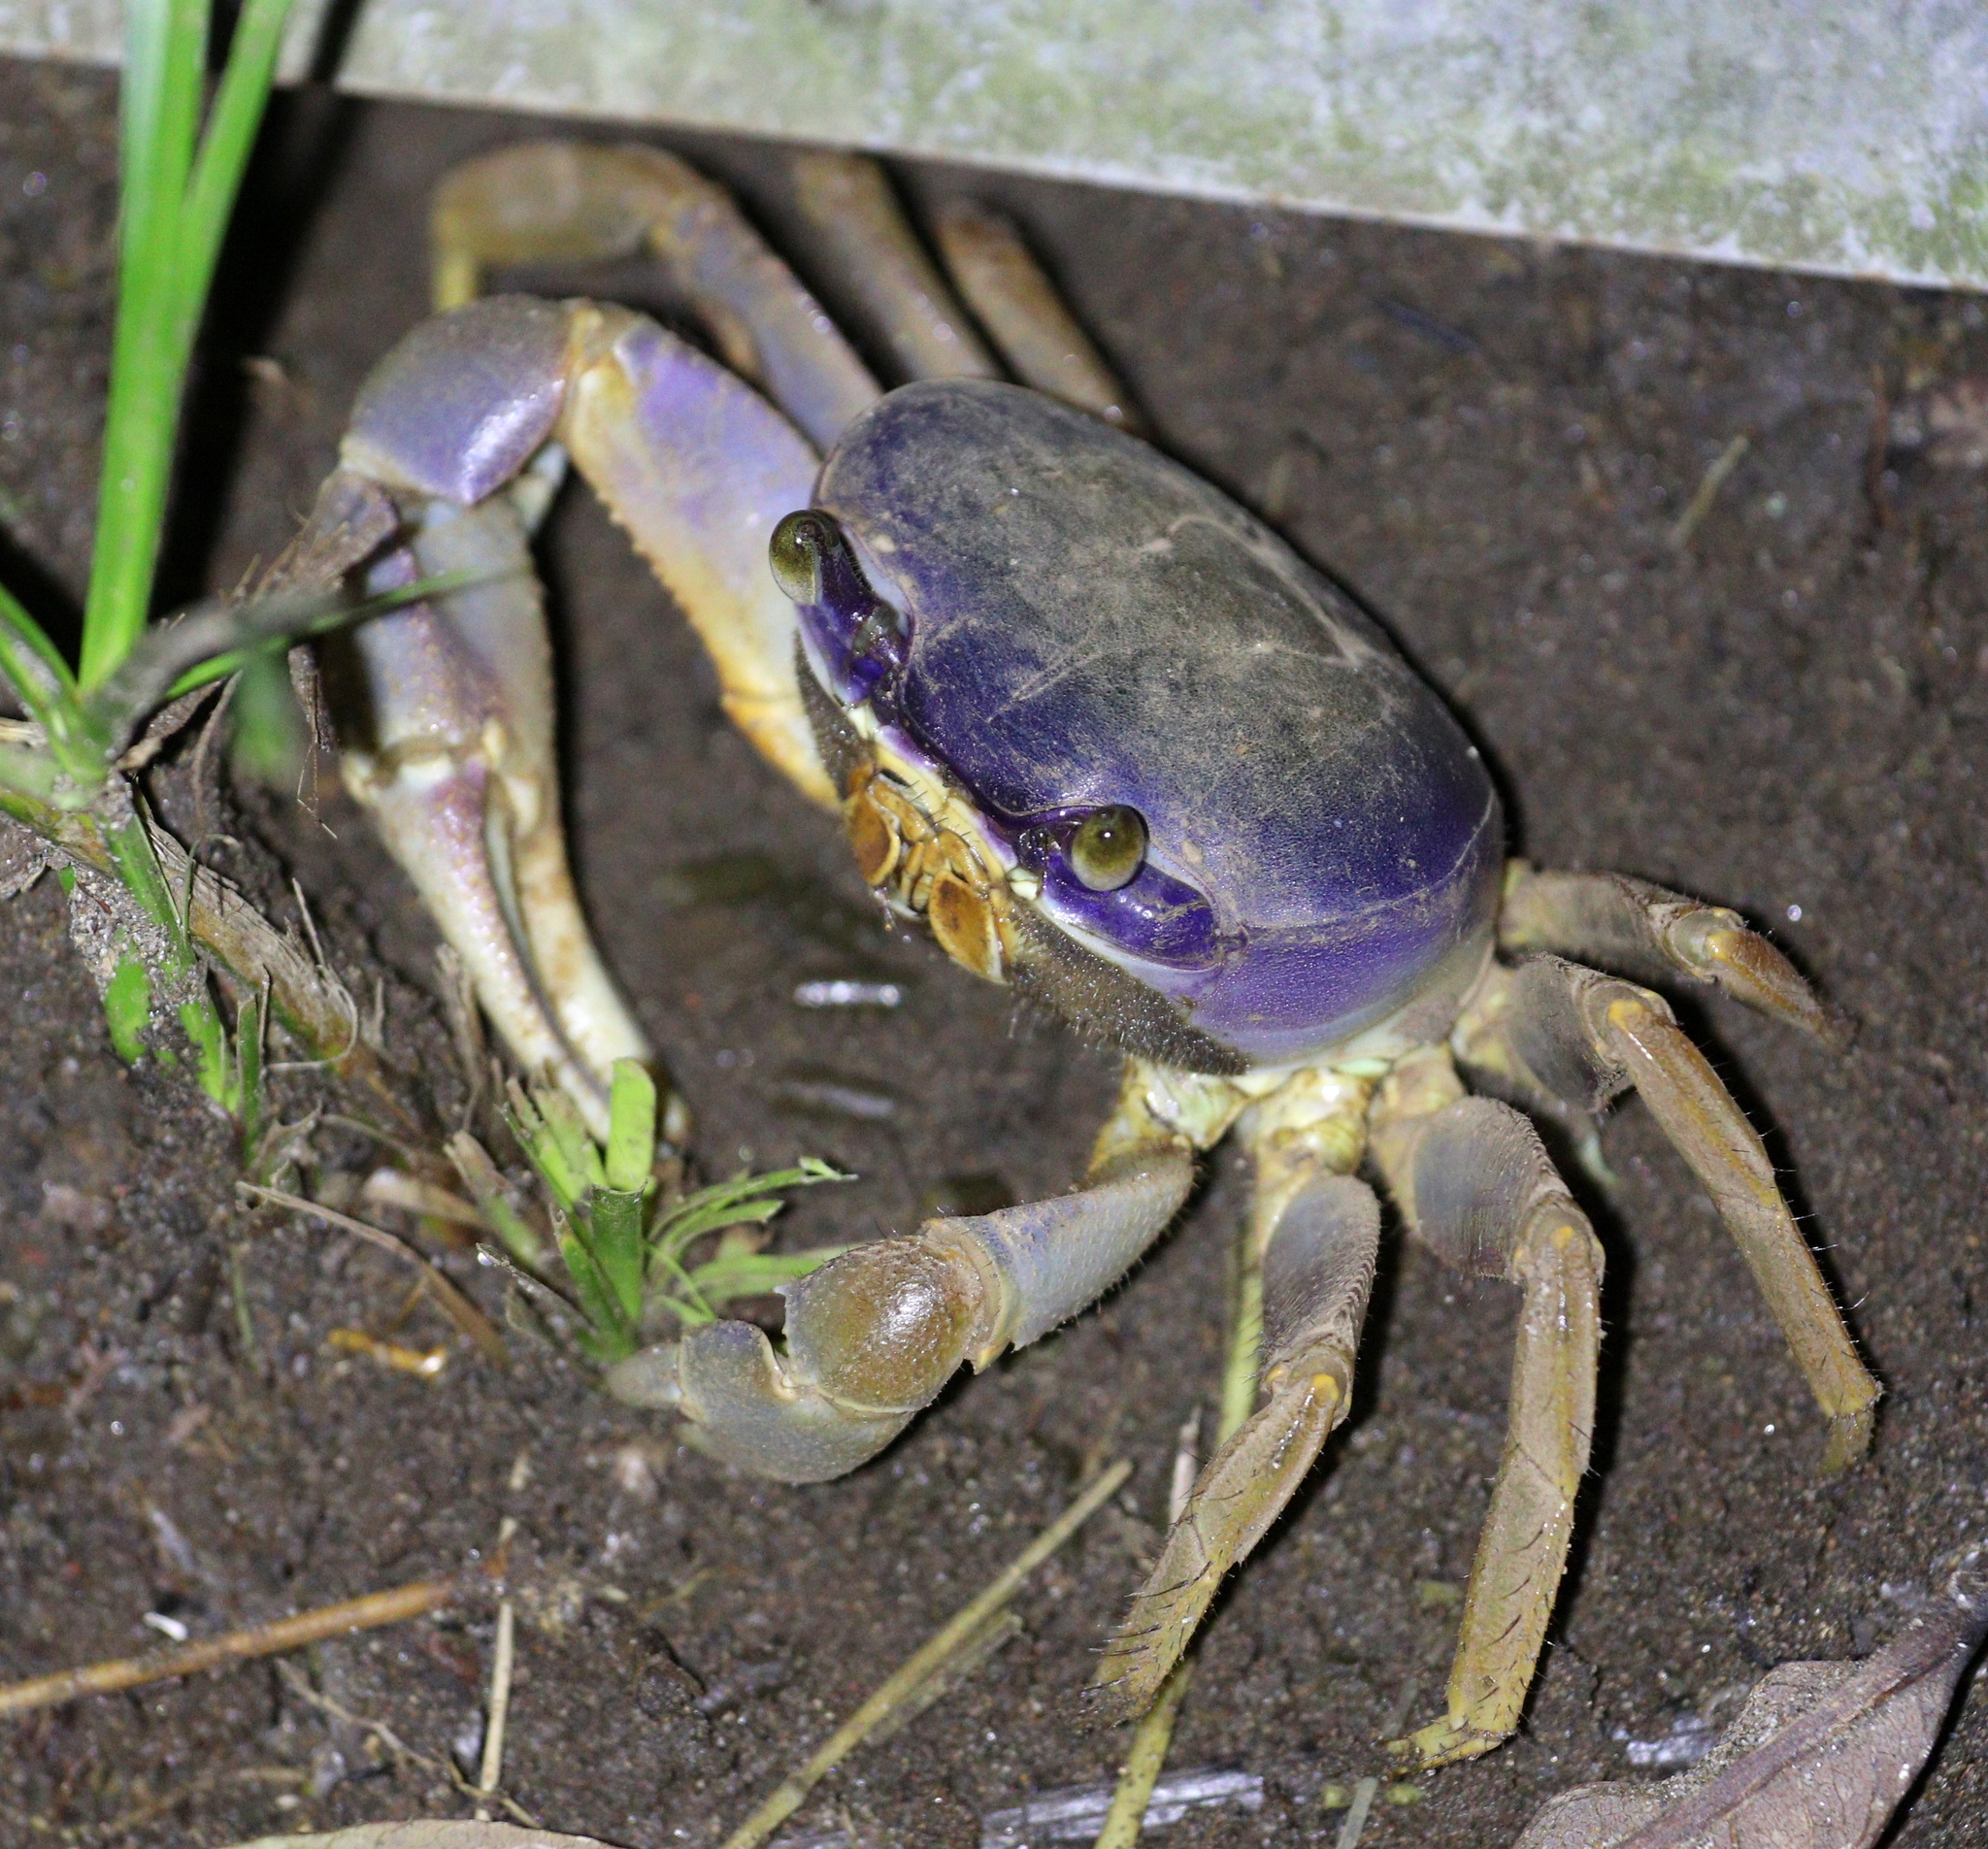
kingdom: Animalia
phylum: Arthropoda
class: Malacostraca
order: Decapoda
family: Gecarcinidae
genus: Cardisoma
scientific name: Cardisoma guanhumi
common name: Great land crab
